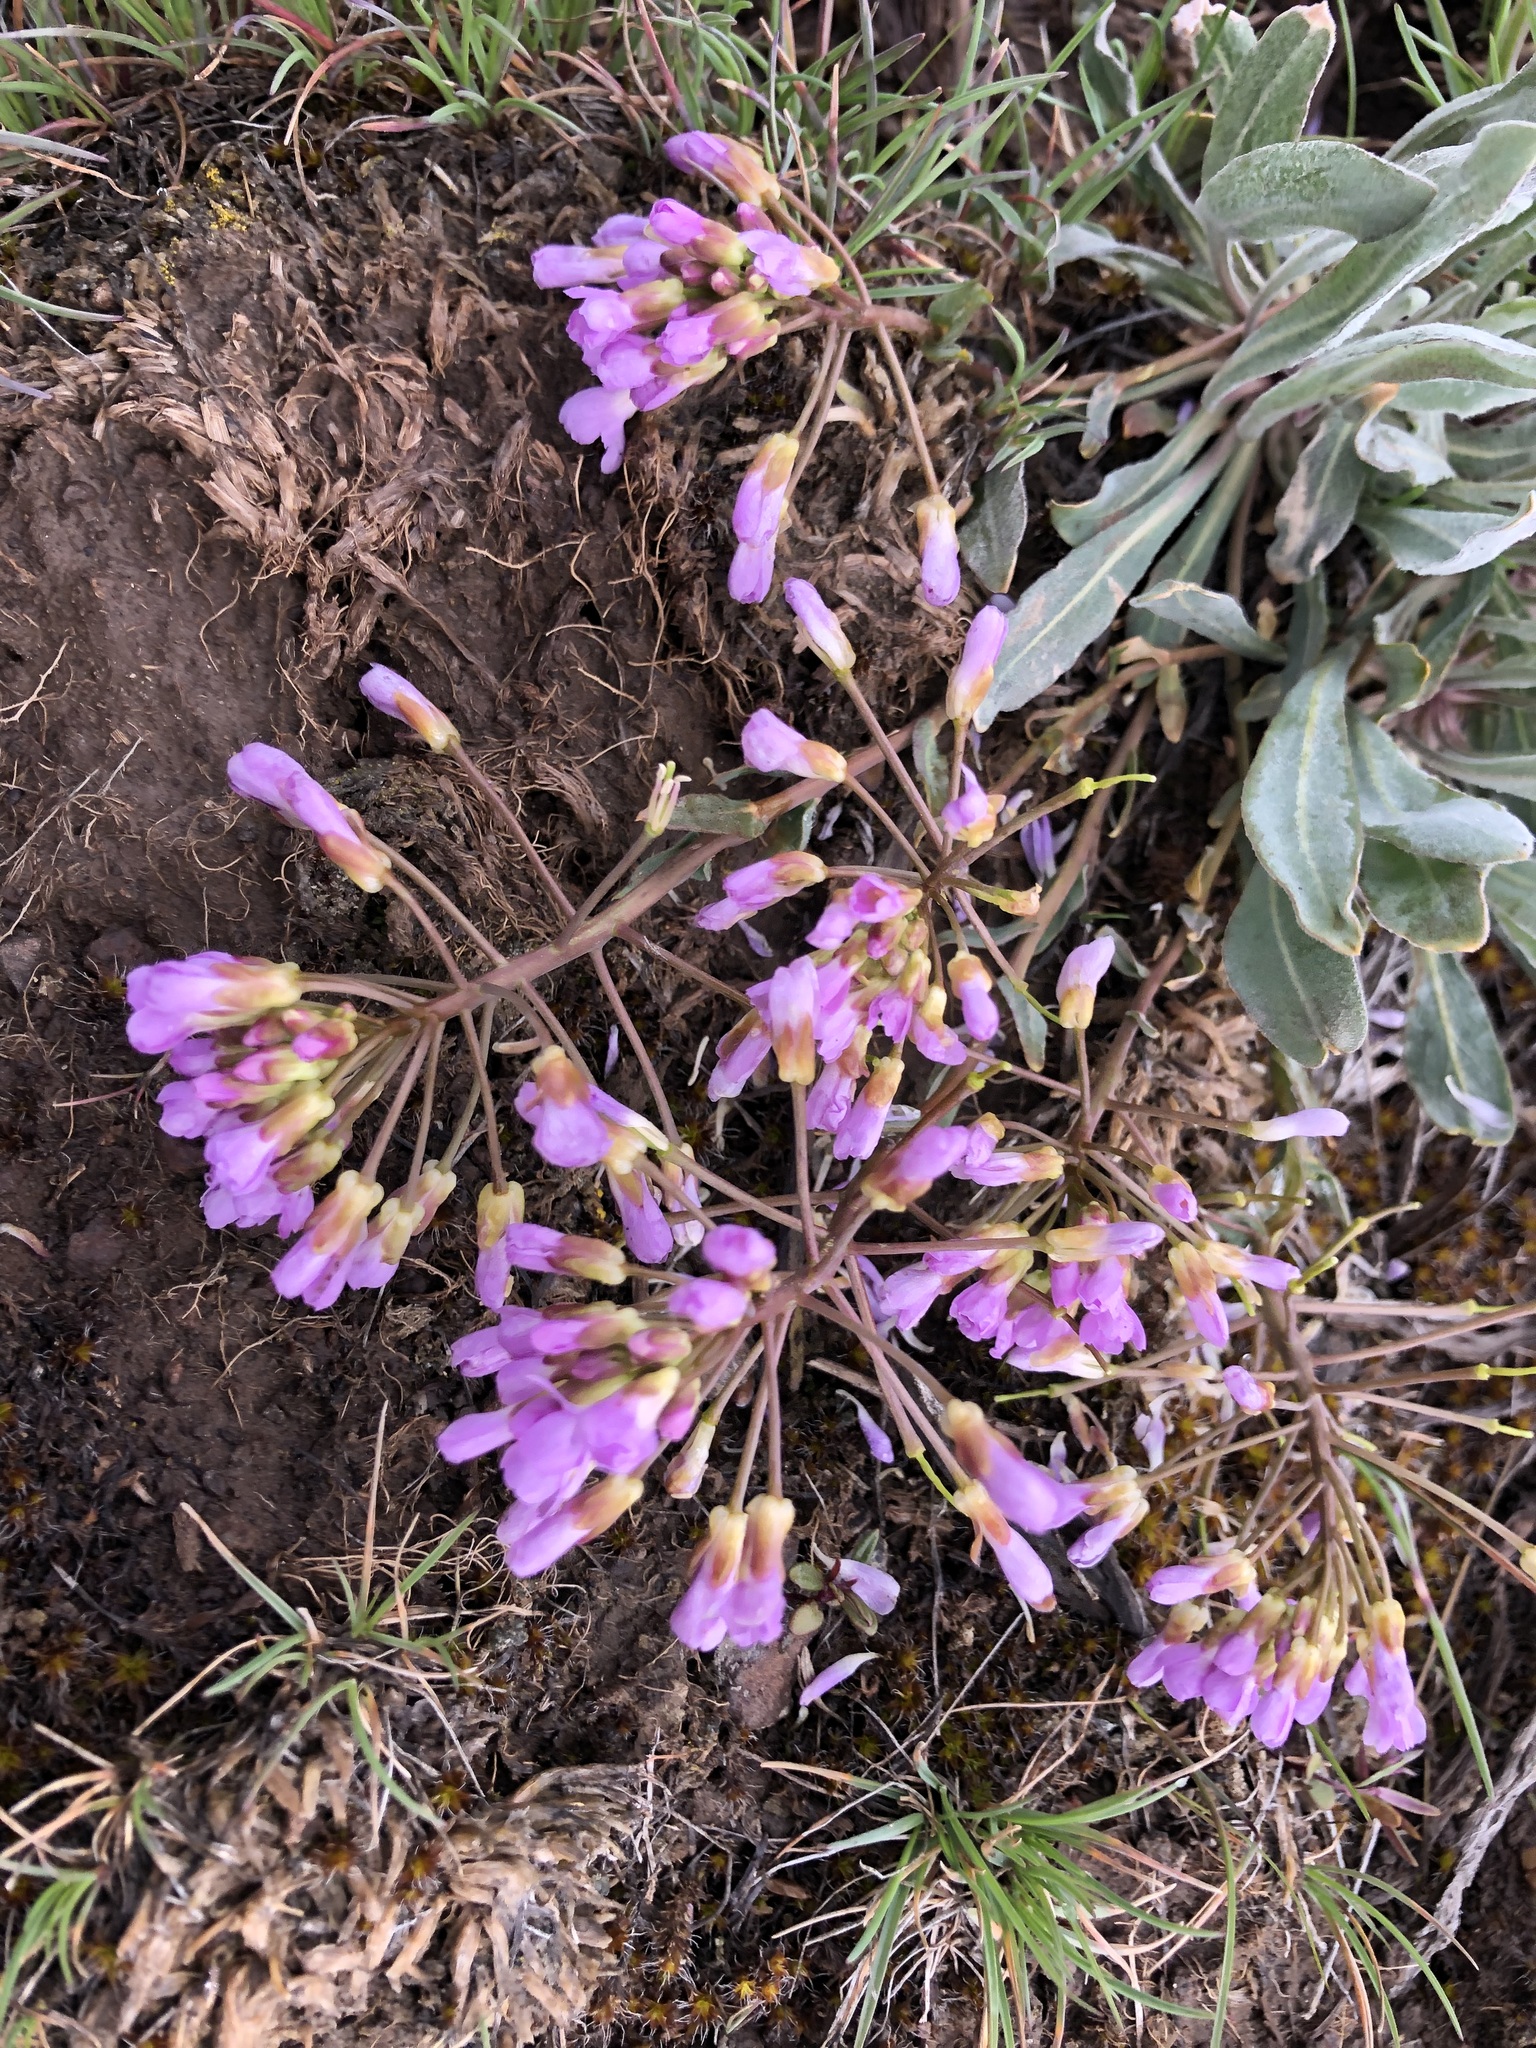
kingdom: Plantae
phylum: Tracheophyta
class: Magnoliopsida
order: Brassicales
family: Brassicaceae
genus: Phoenicaulis
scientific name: Phoenicaulis cheiranthoides
